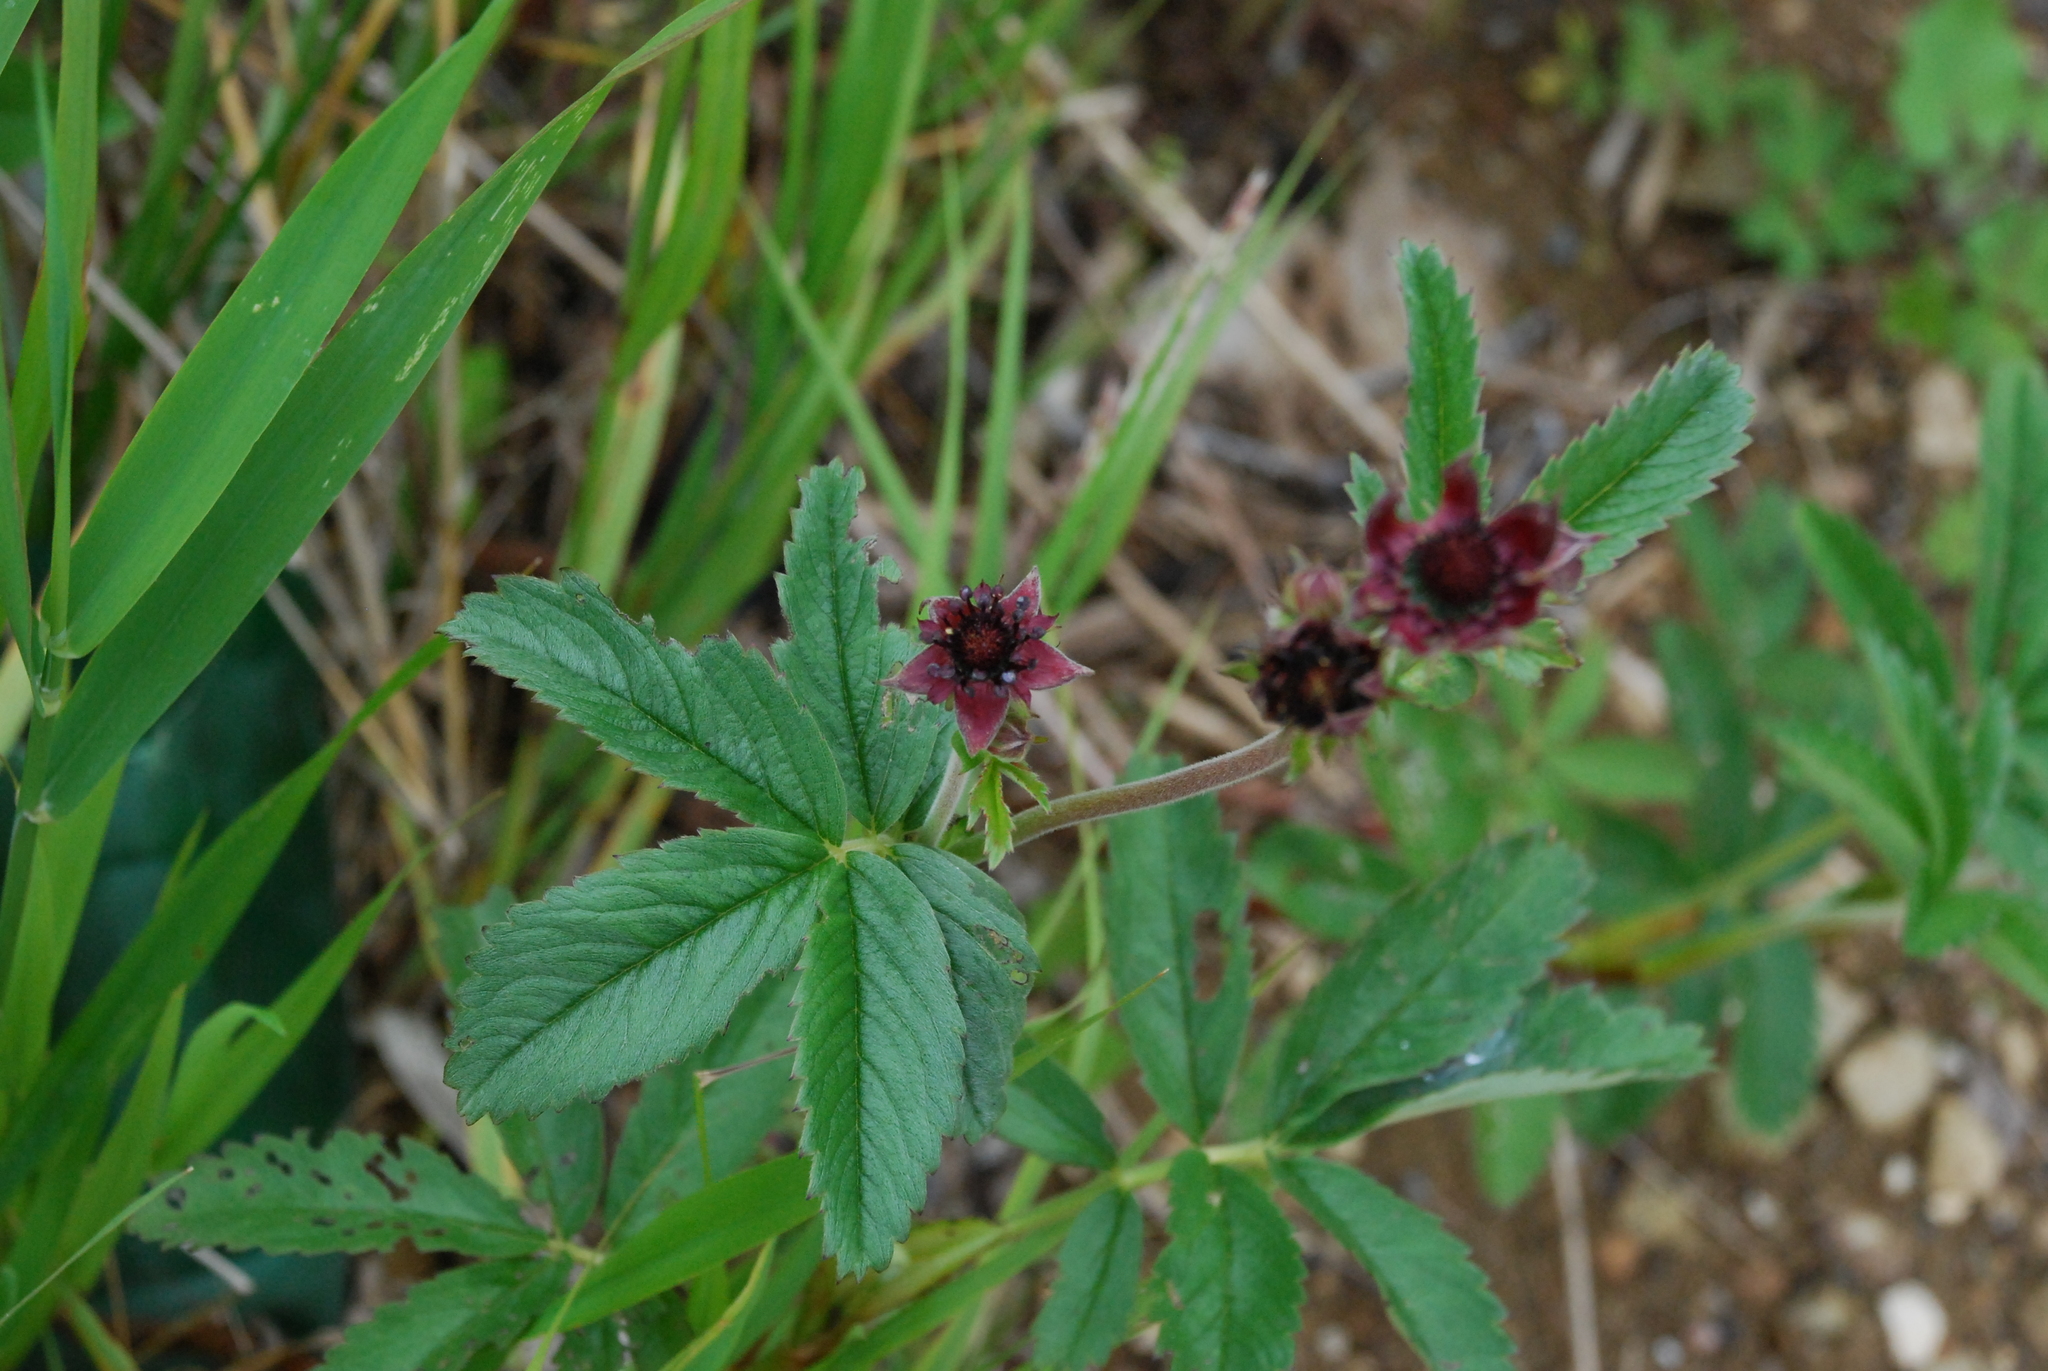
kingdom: Plantae
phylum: Tracheophyta
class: Magnoliopsida
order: Rosales
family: Rosaceae
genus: Comarum
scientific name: Comarum palustre
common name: Marsh cinquefoil
